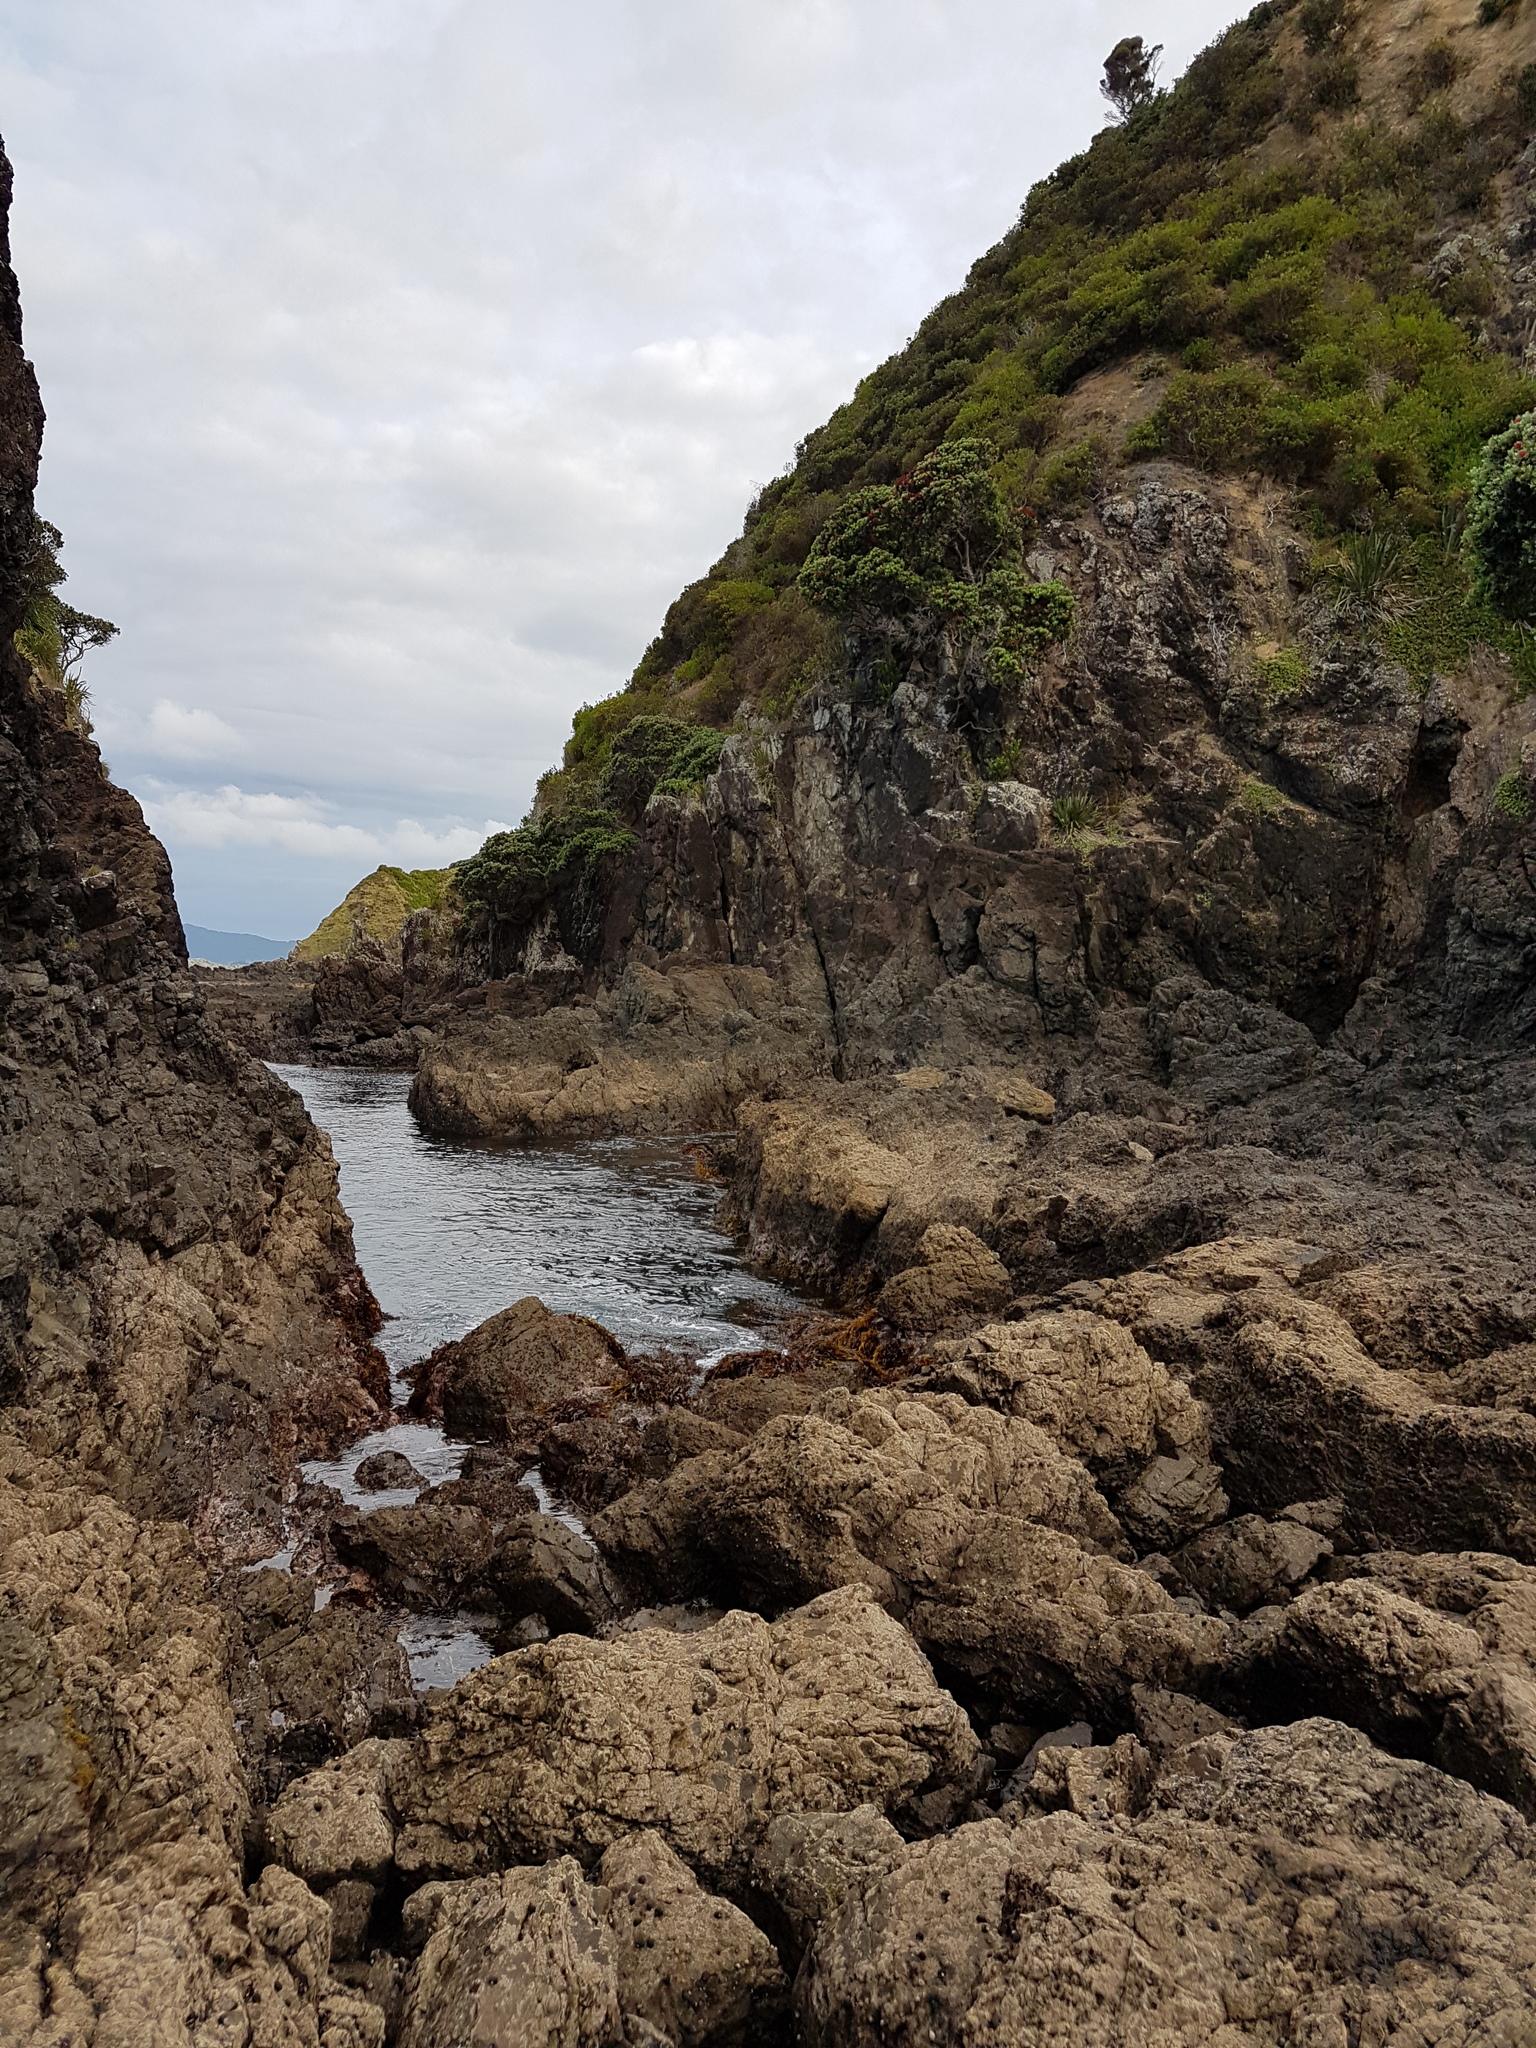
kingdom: Chromista
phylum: Ochrophyta
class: Phaeophyceae
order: Fucales
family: Sargassaceae
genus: Carpophyllum
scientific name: Carpophyllum maschalocarpum
